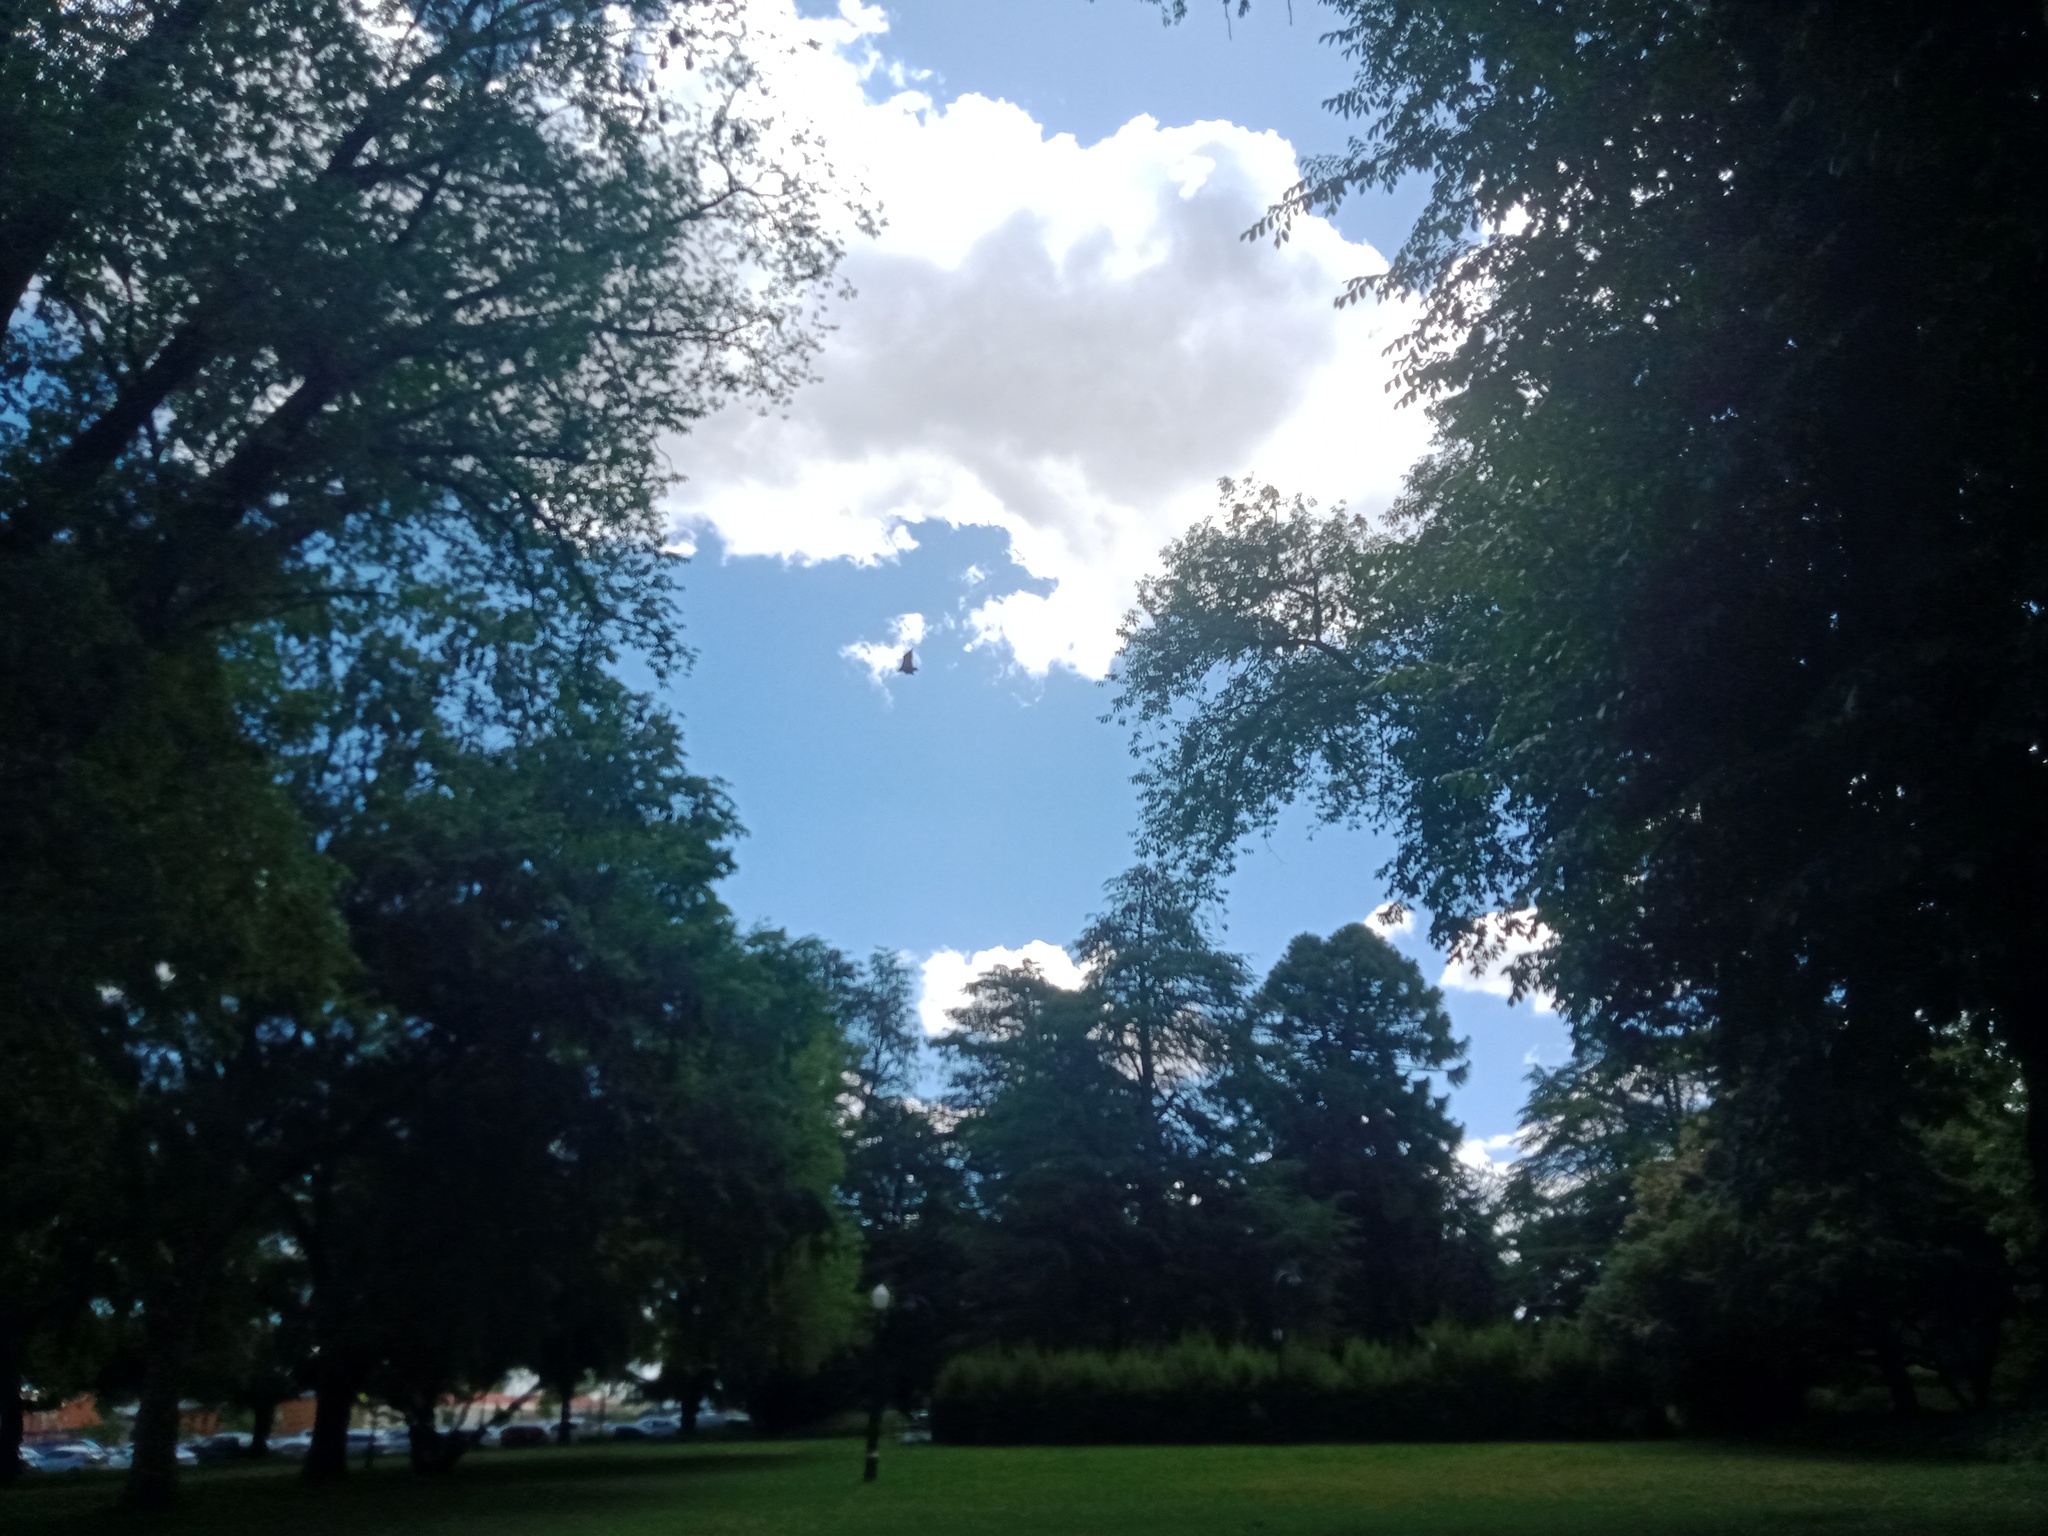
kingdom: Animalia
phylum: Chordata
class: Mammalia
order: Chiroptera
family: Pteropodidae
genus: Pteropus
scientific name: Pteropus poliocephalus
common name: Gray-headed flying fox
